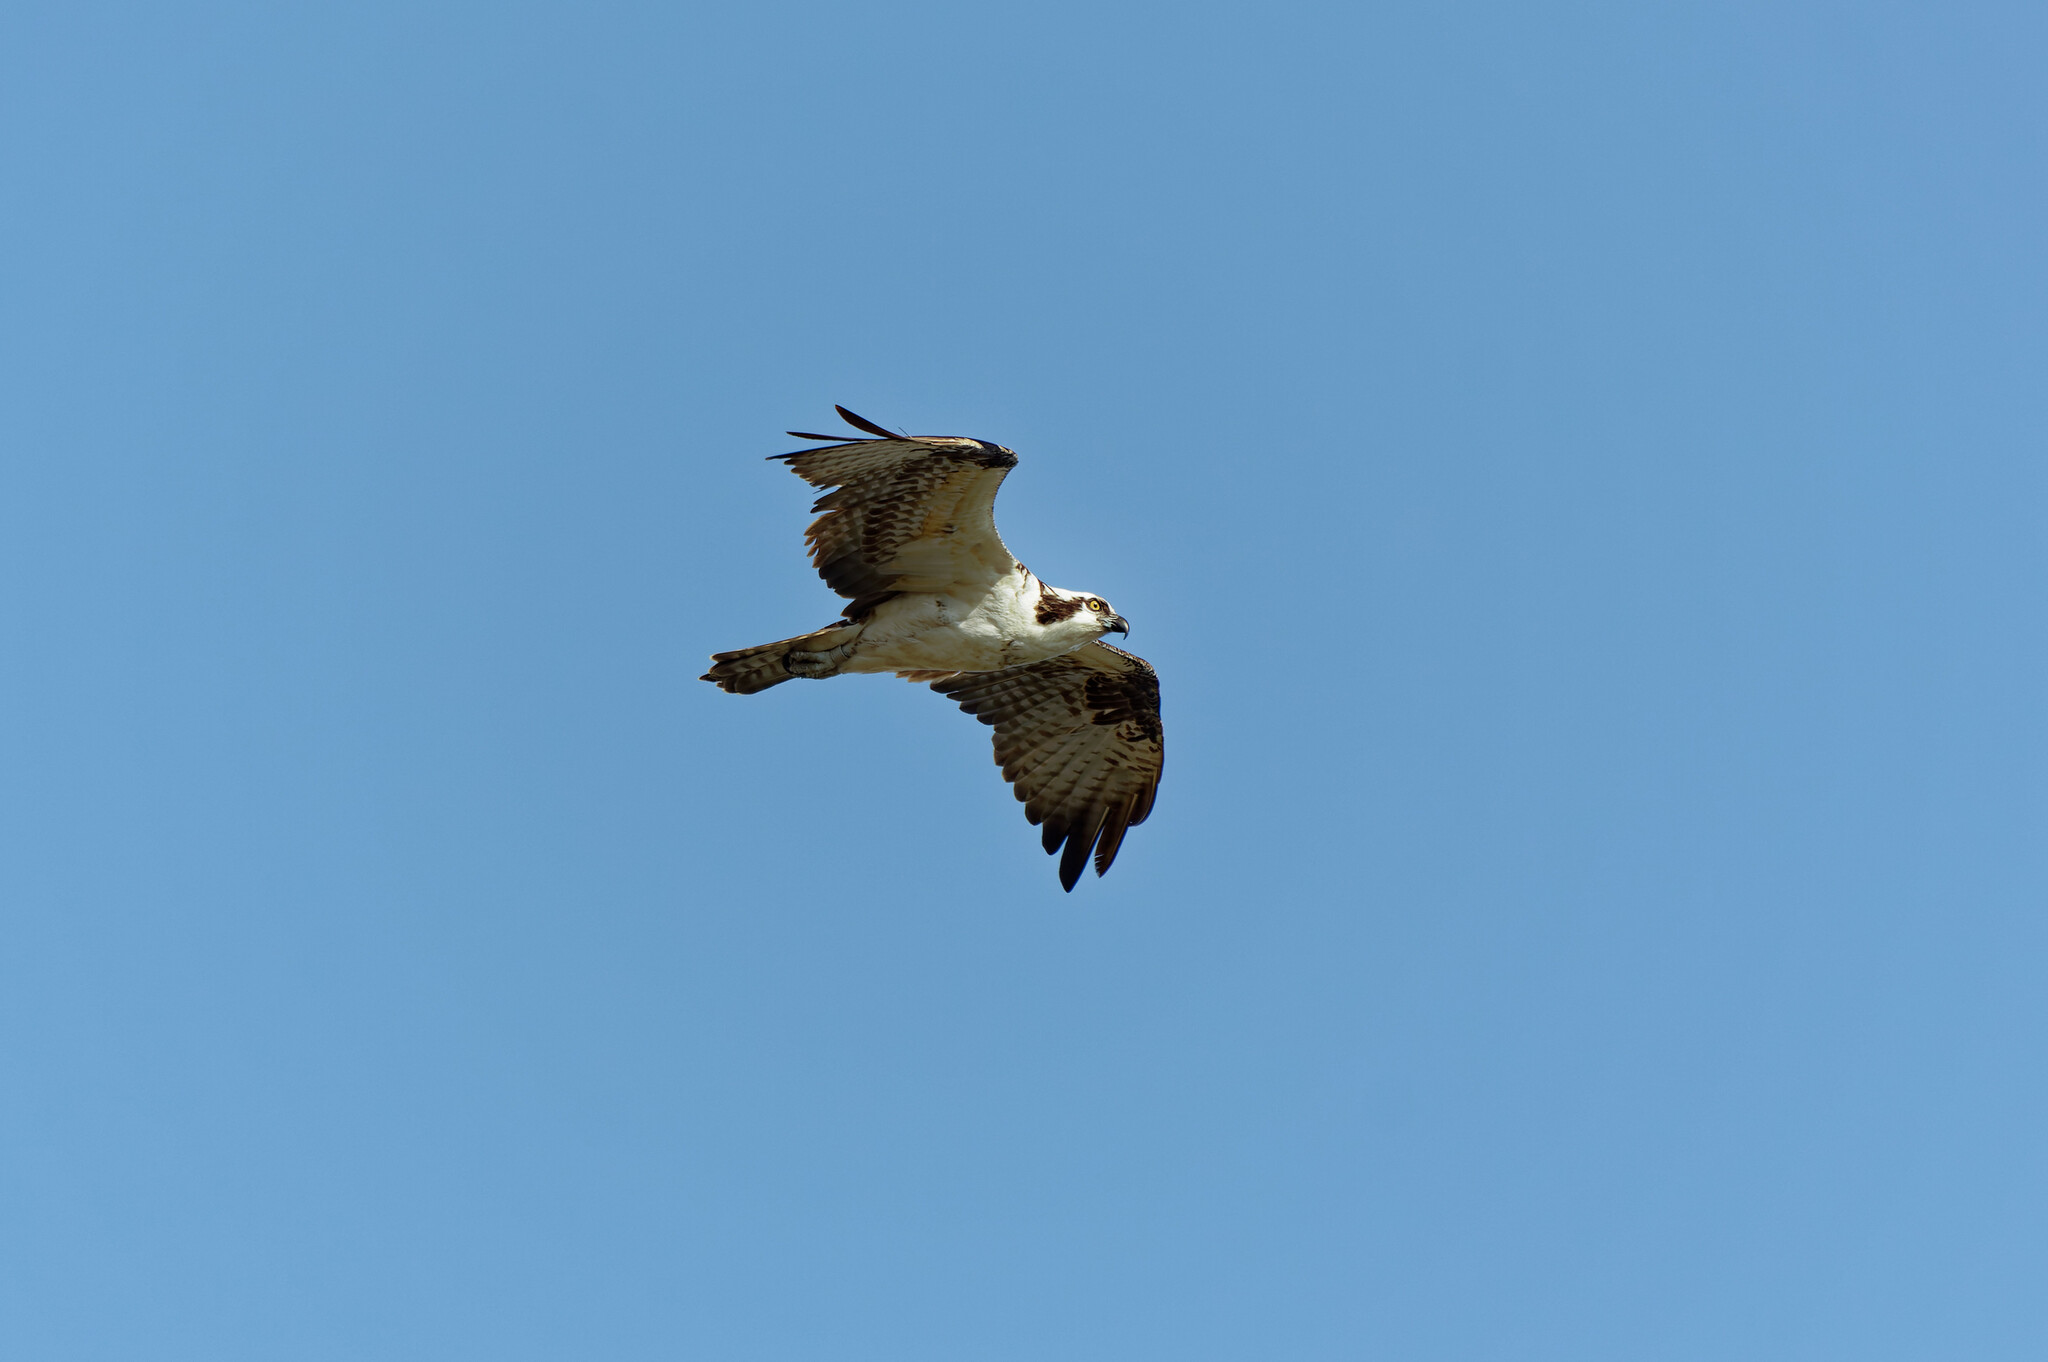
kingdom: Animalia
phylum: Chordata
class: Aves
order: Accipitriformes
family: Pandionidae
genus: Pandion
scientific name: Pandion haliaetus
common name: Osprey
